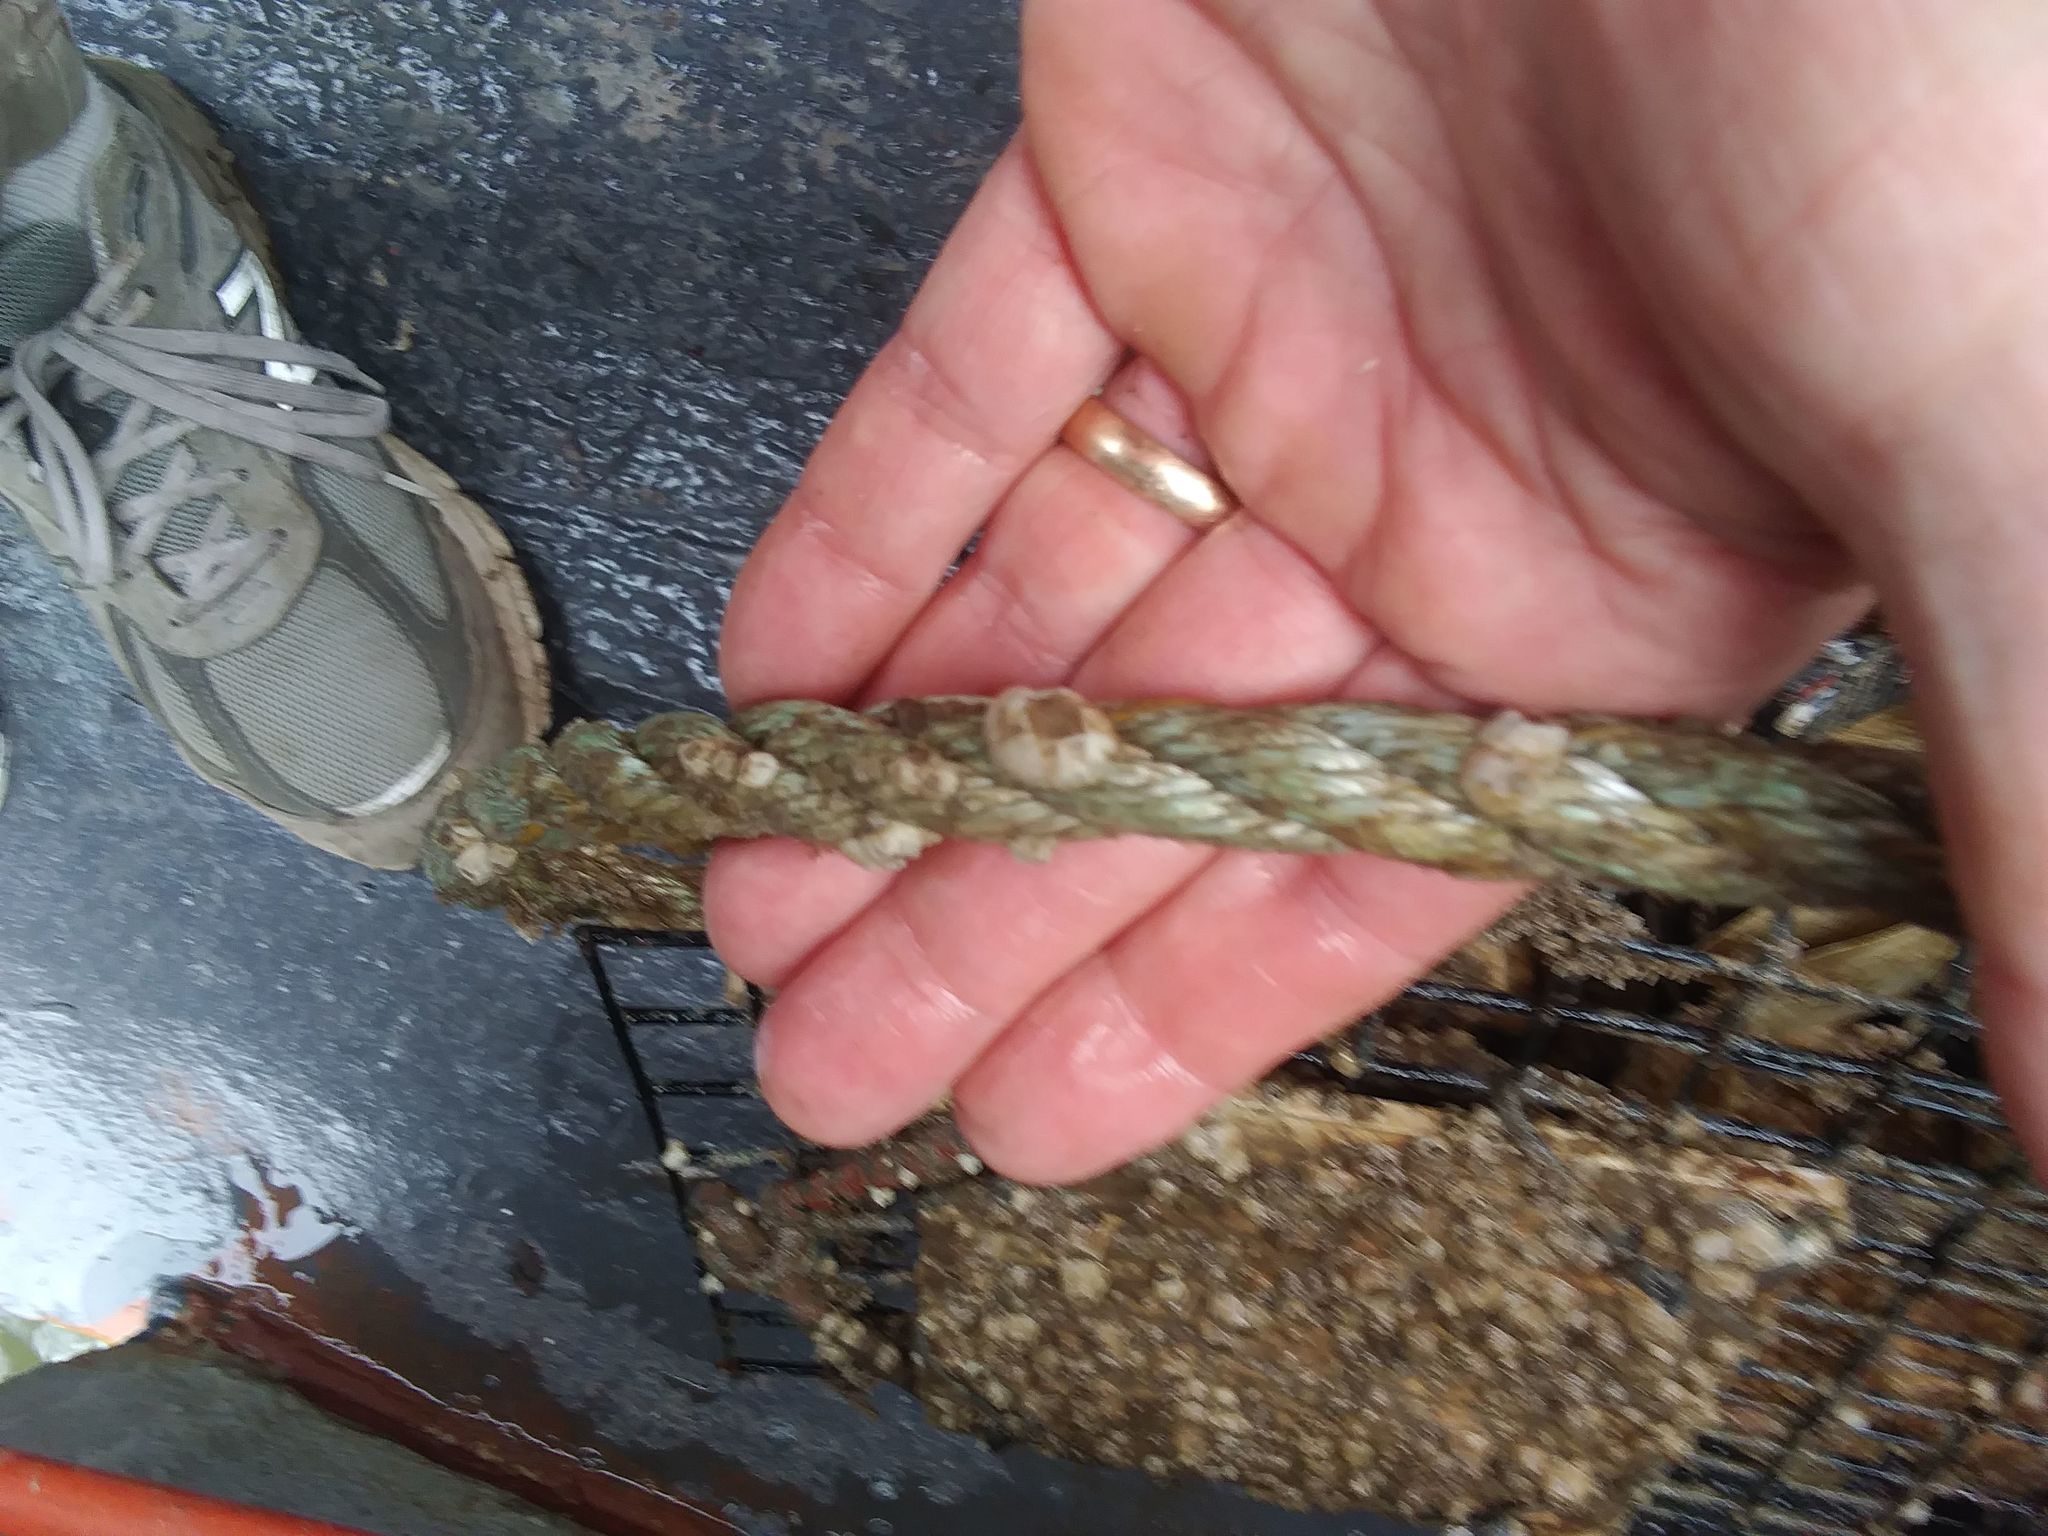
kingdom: Animalia
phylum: Arthropoda
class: Maxillopoda
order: Sessilia
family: Balanidae
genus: Amphibalanus
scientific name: Amphibalanus improvisus
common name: Bay barnacle
